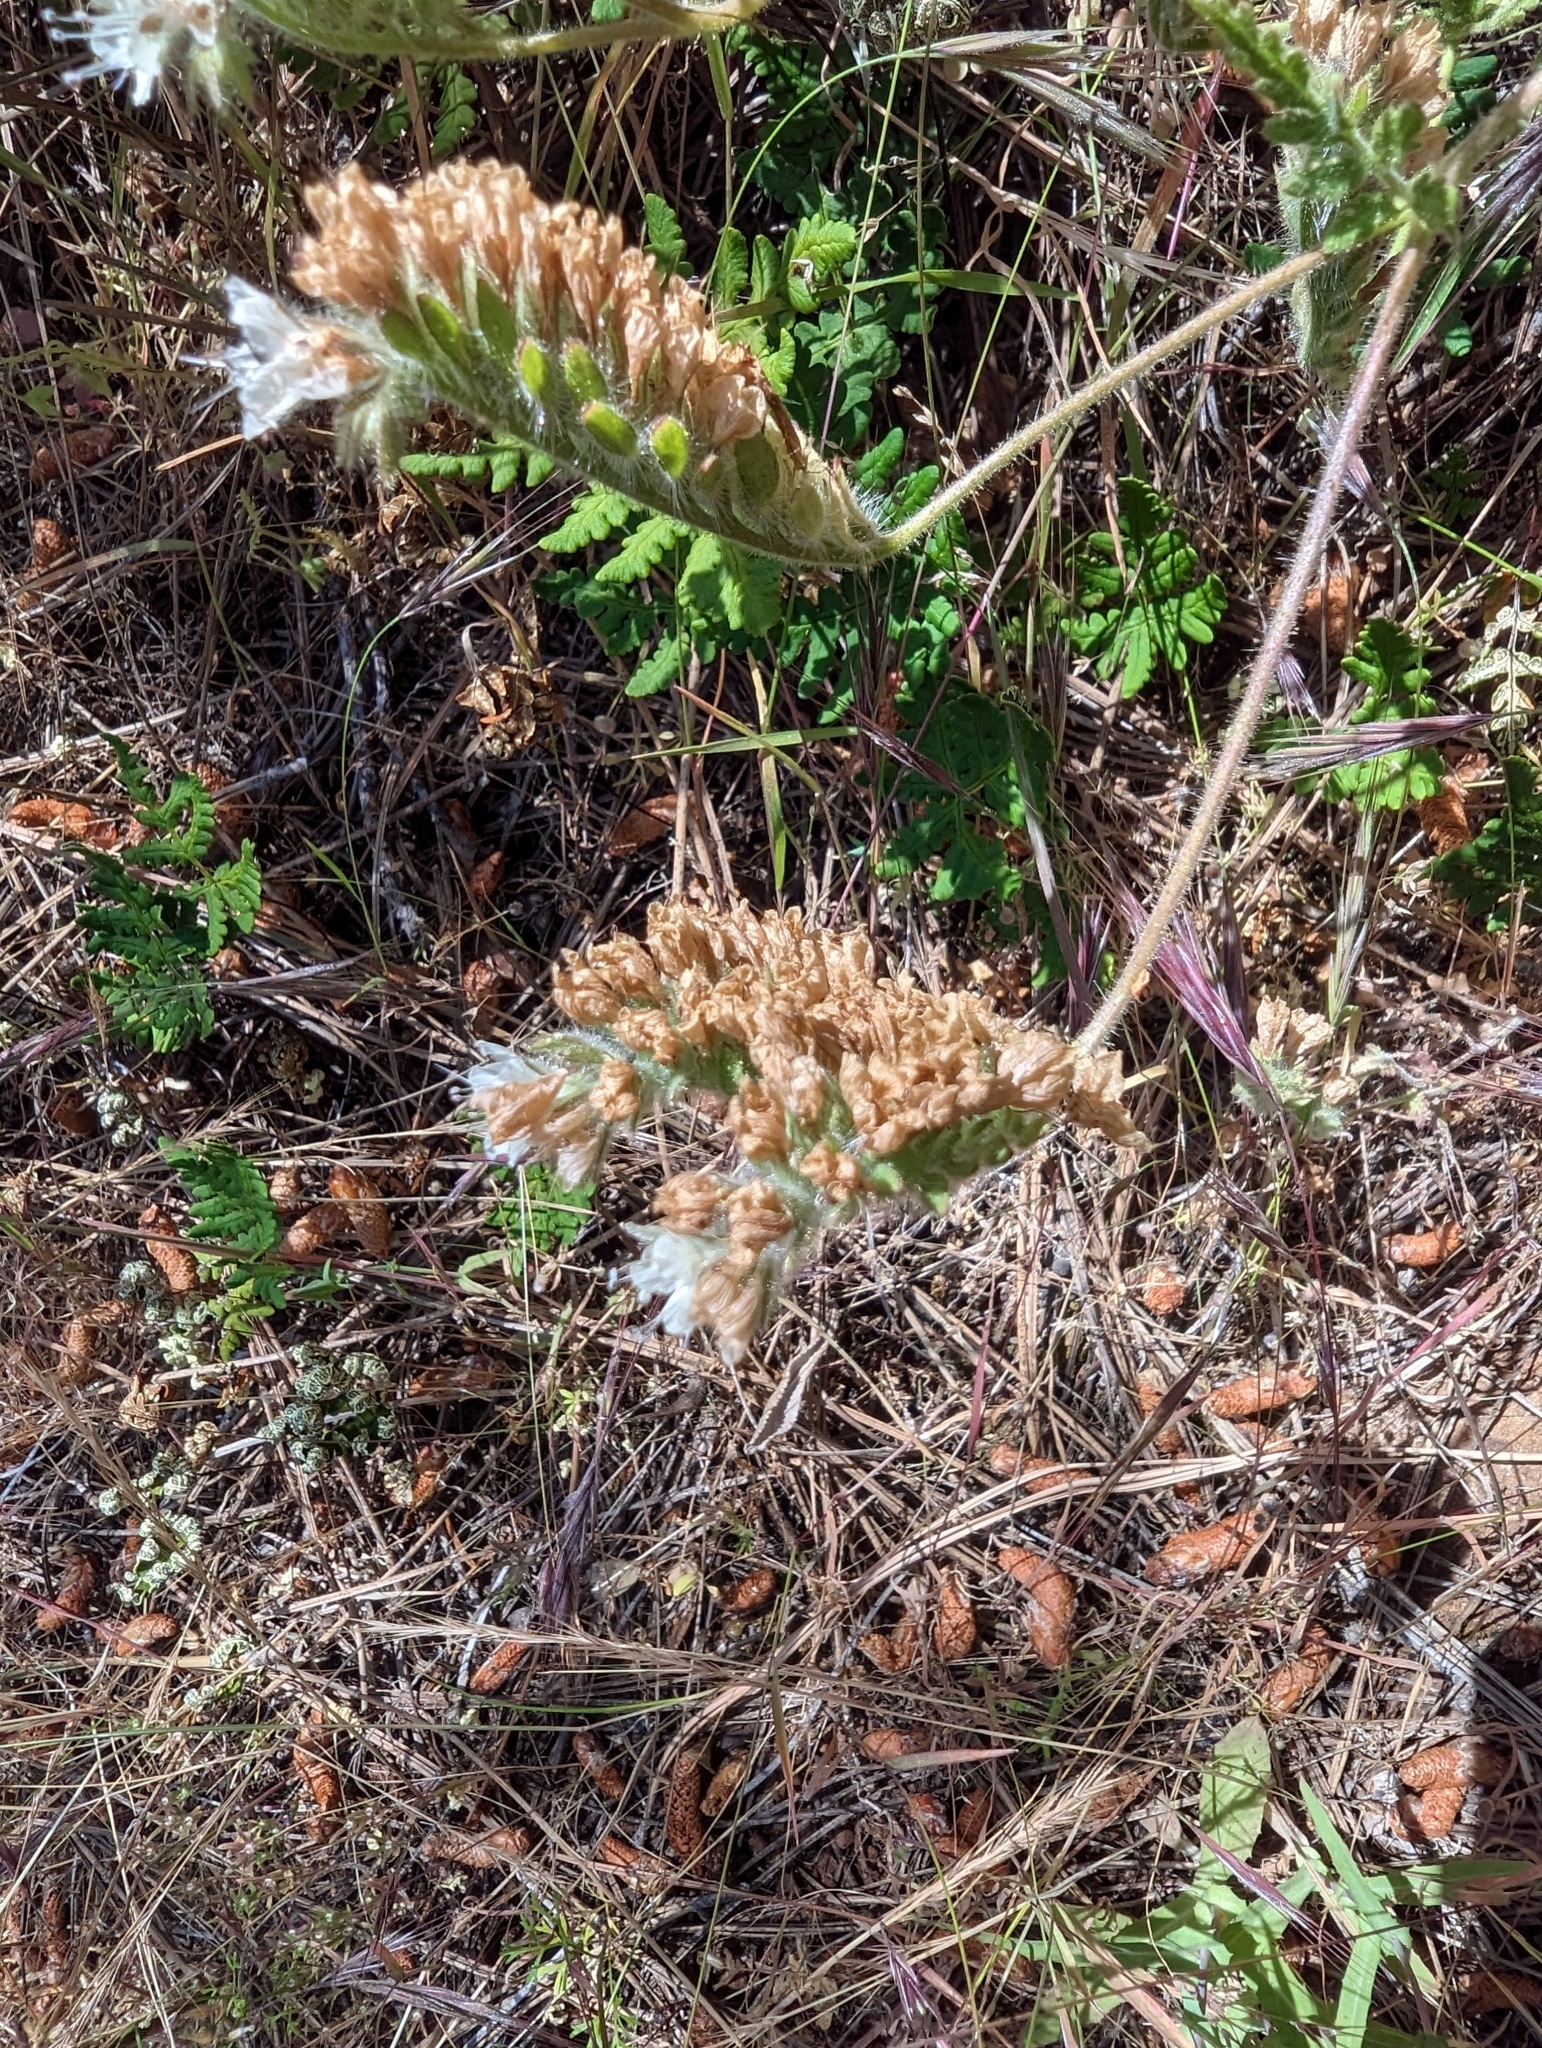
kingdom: Plantae
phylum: Tracheophyta
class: Magnoliopsida
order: Boraginales
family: Hydrophyllaceae
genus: Phacelia
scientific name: Phacelia distans
